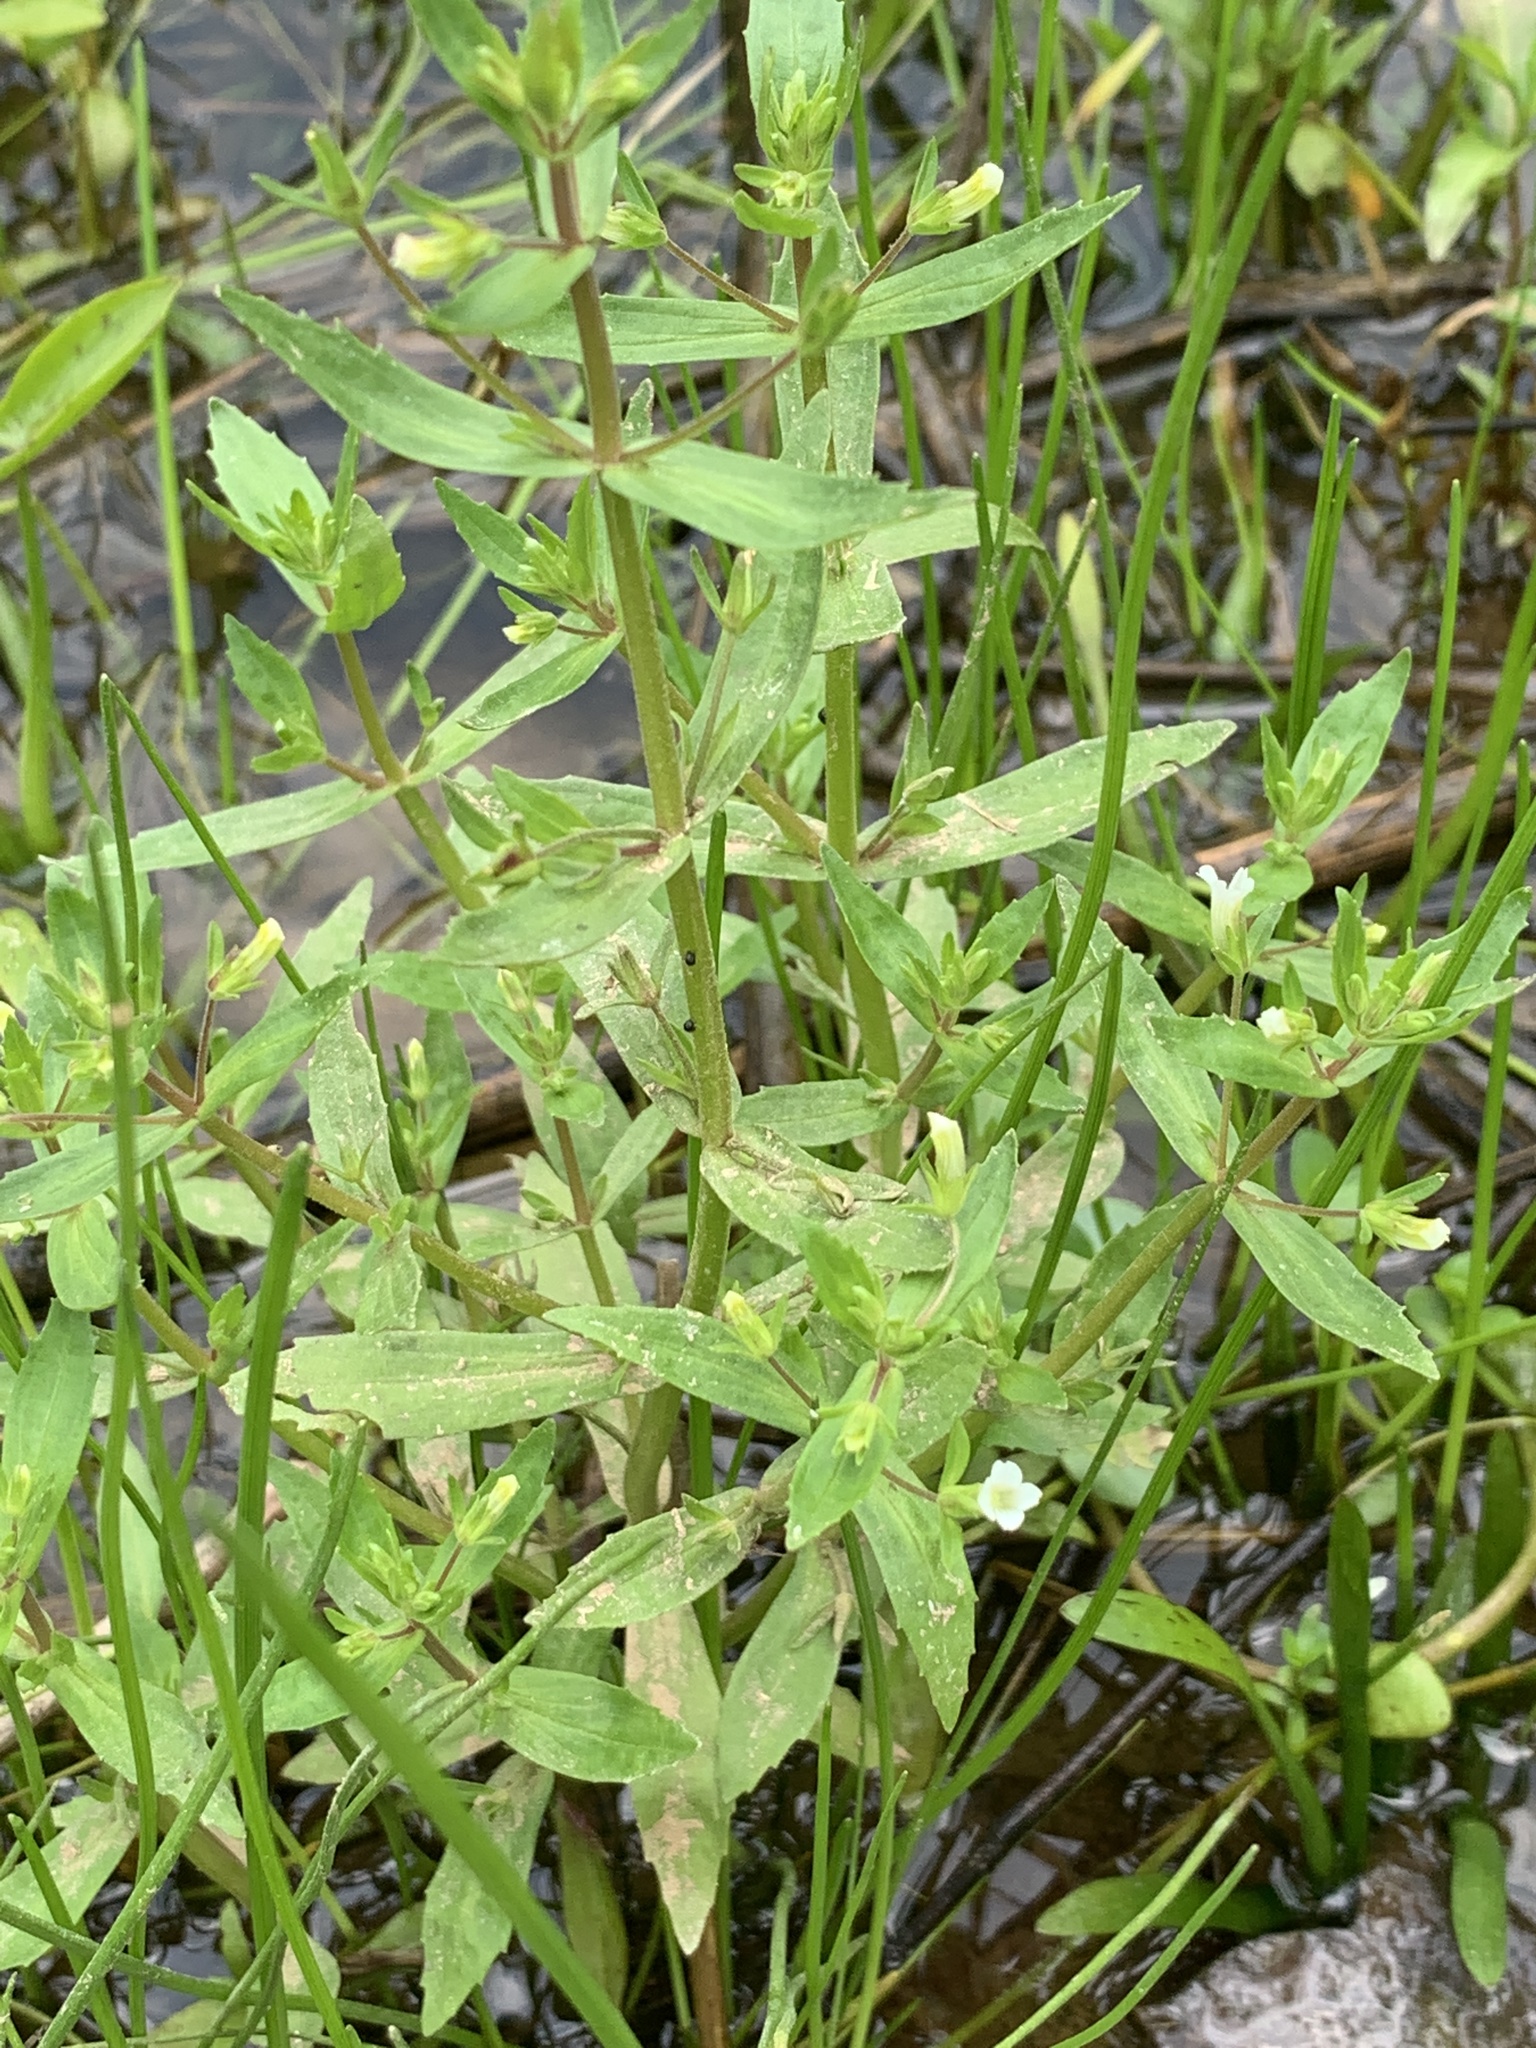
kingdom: Plantae
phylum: Tracheophyta
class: Magnoliopsida
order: Lamiales
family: Plantaginaceae
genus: Gratiola
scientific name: Gratiola neglecta
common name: American hedge-hyssop
